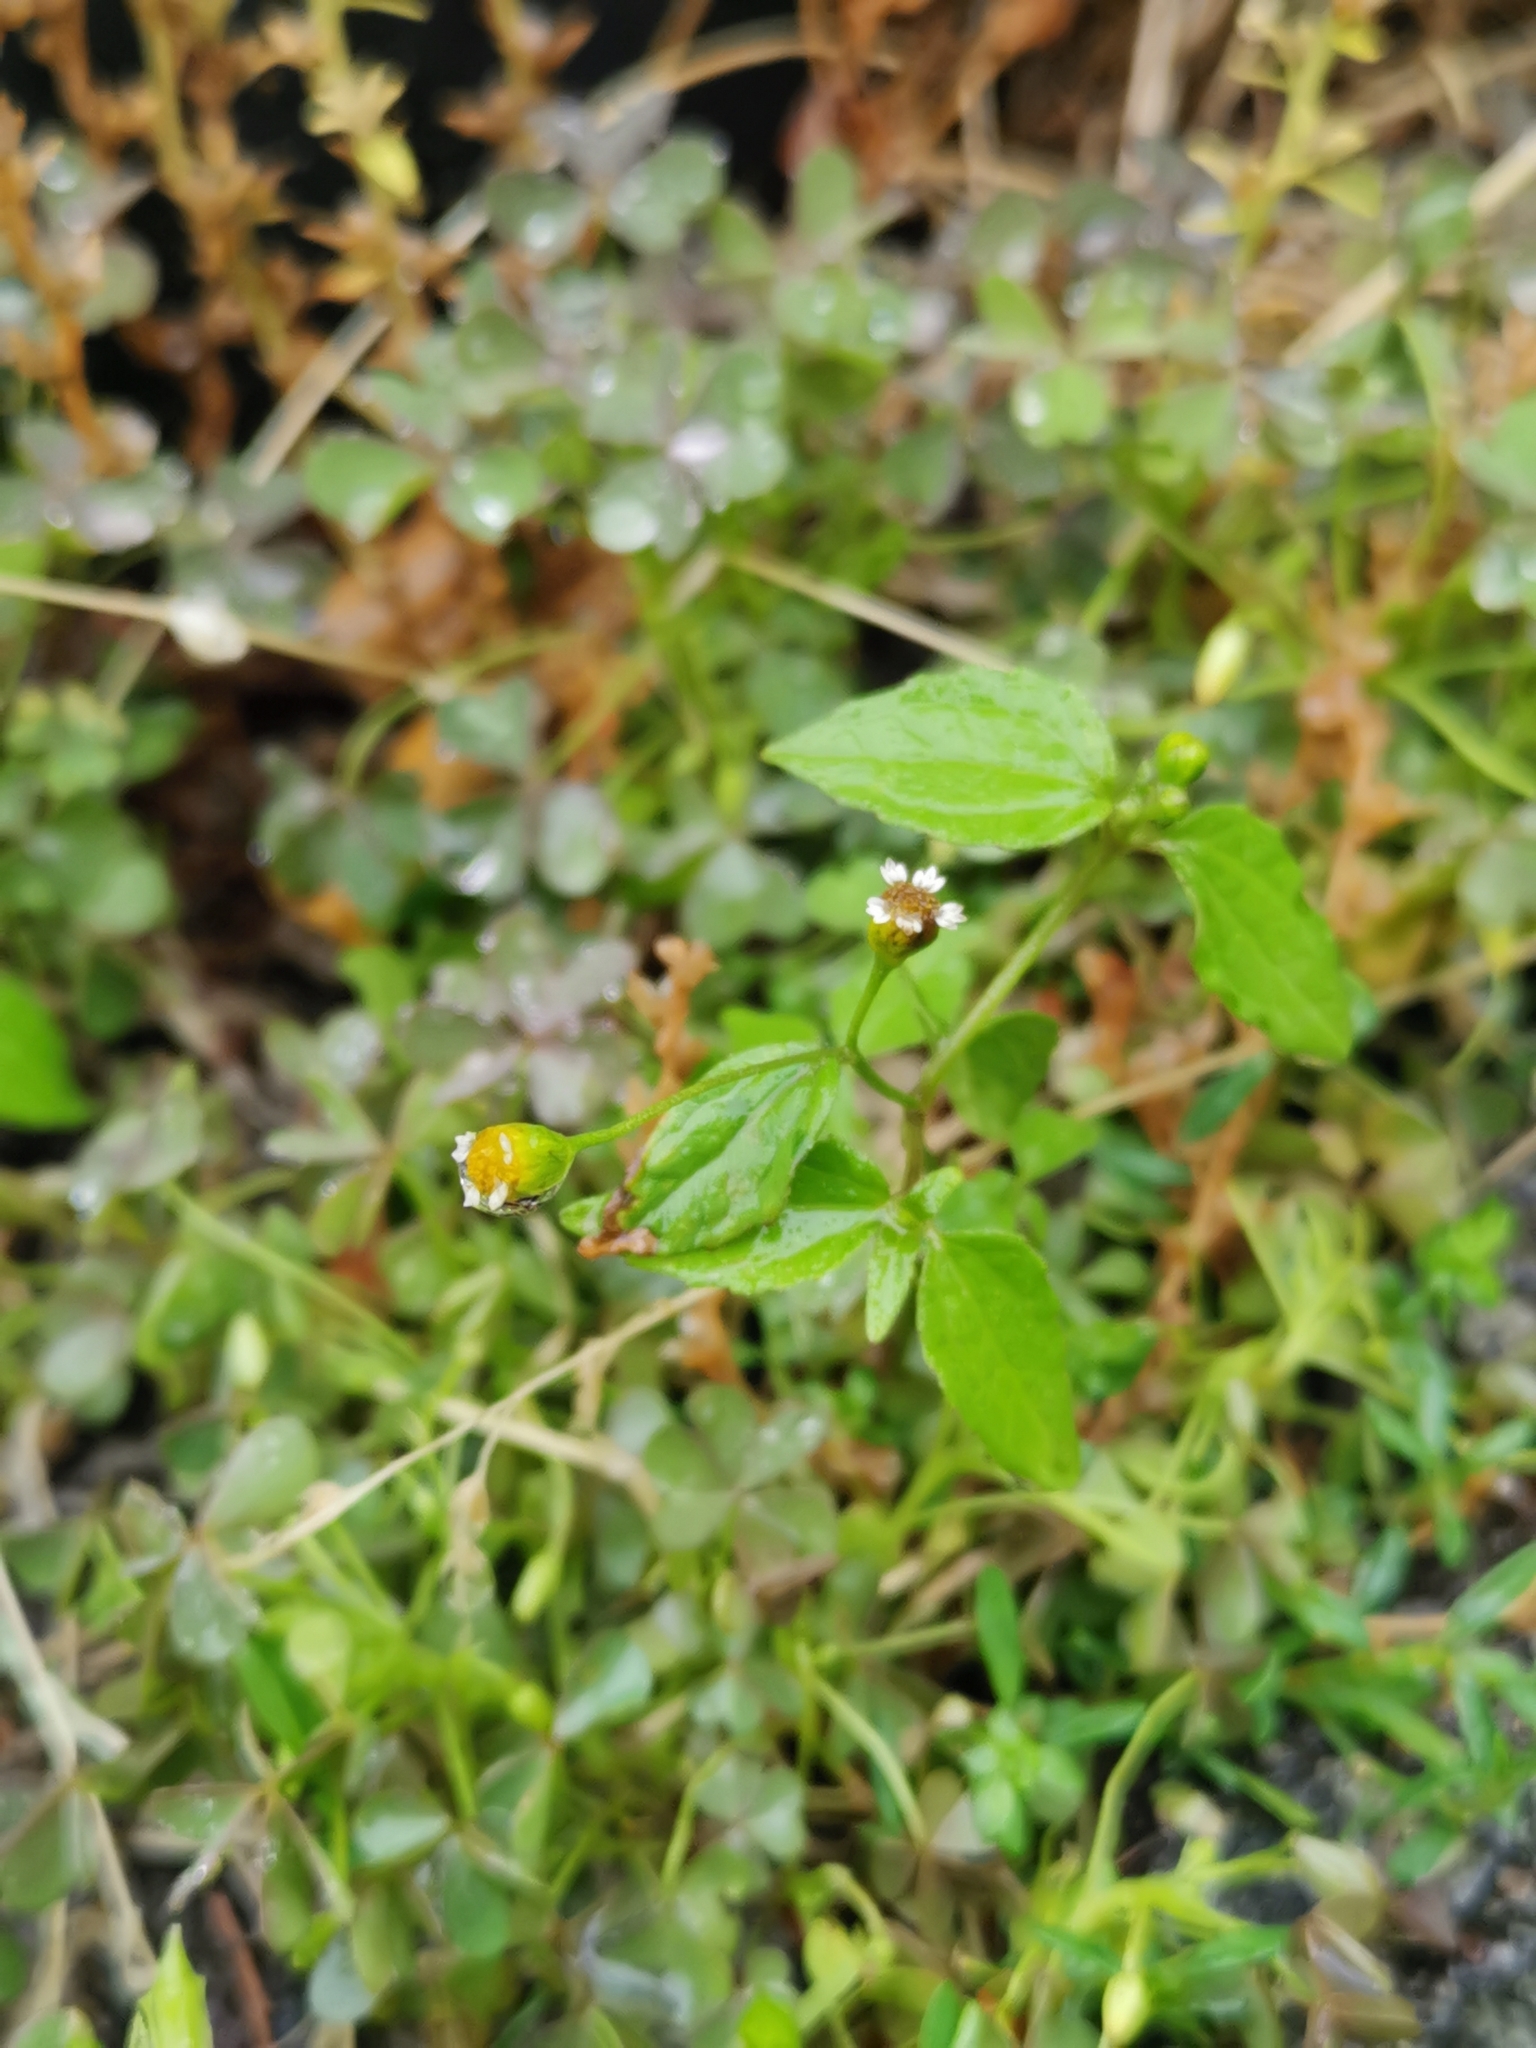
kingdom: Plantae
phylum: Tracheophyta
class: Magnoliopsida
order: Asterales
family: Asteraceae
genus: Galinsoga
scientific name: Galinsoga parviflora
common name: Gallant soldier
